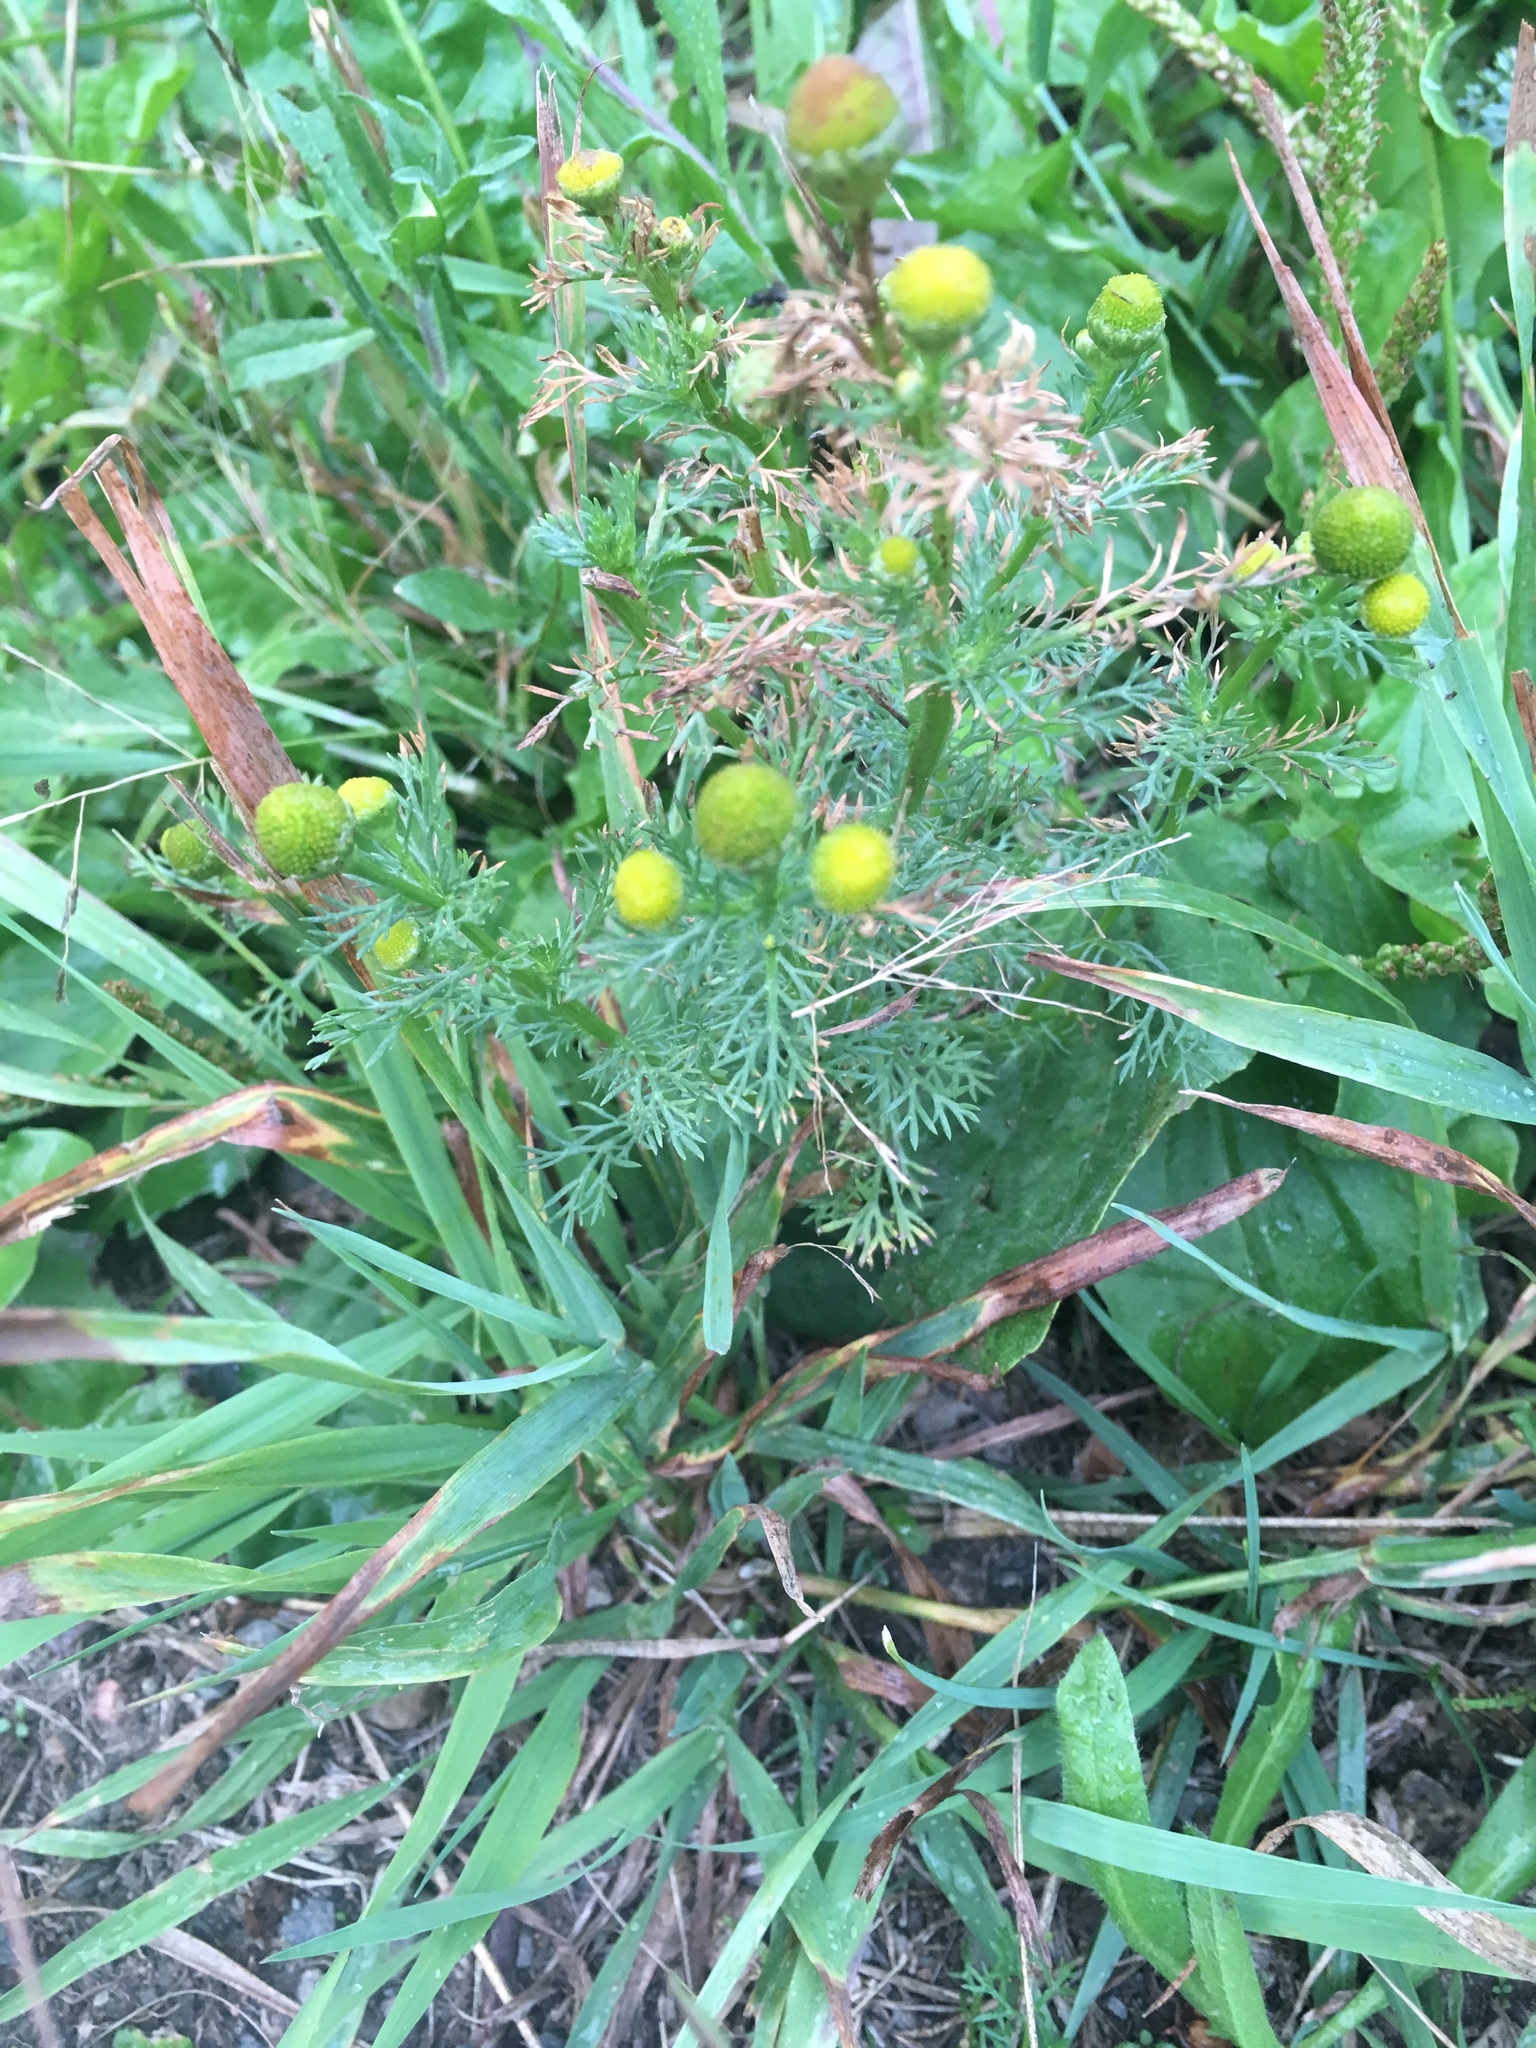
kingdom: Plantae
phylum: Tracheophyta
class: Magnoliopsida
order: Asterales
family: Asteraceae
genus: Matricaria
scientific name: Matricaria discoidea
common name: Disc mayweed
